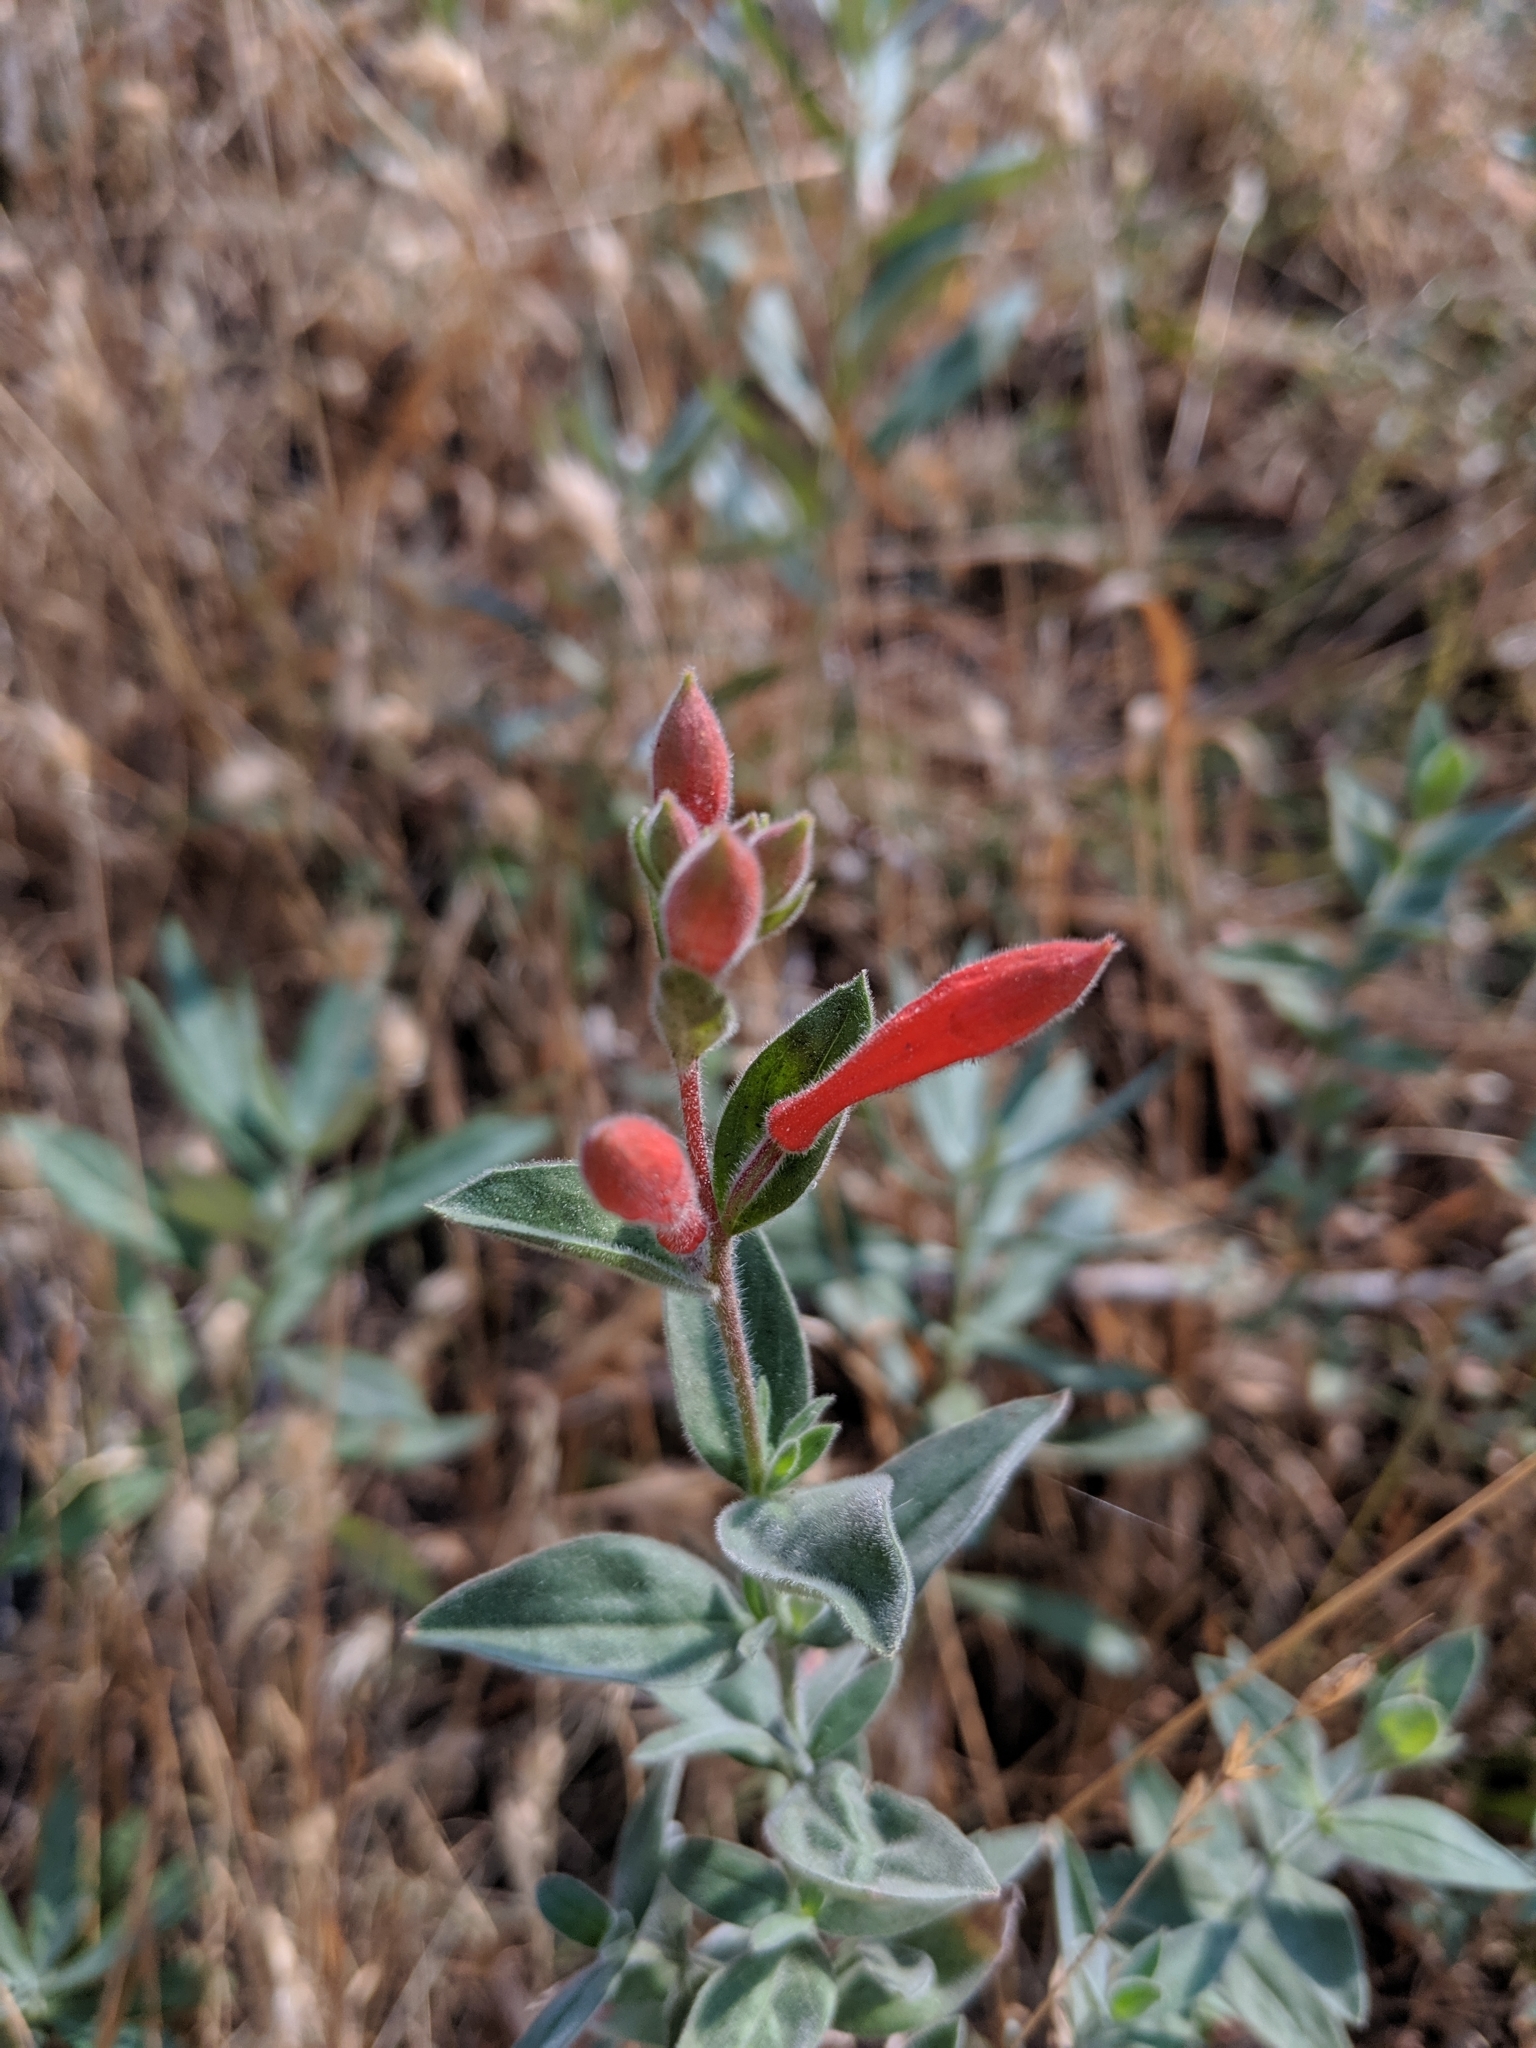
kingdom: Plantae
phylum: Tracheophyta
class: Magnoliopsida
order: Myrtales
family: Onagraceae
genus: Epilobium
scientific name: Epilobium canum
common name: California-fuchsia
